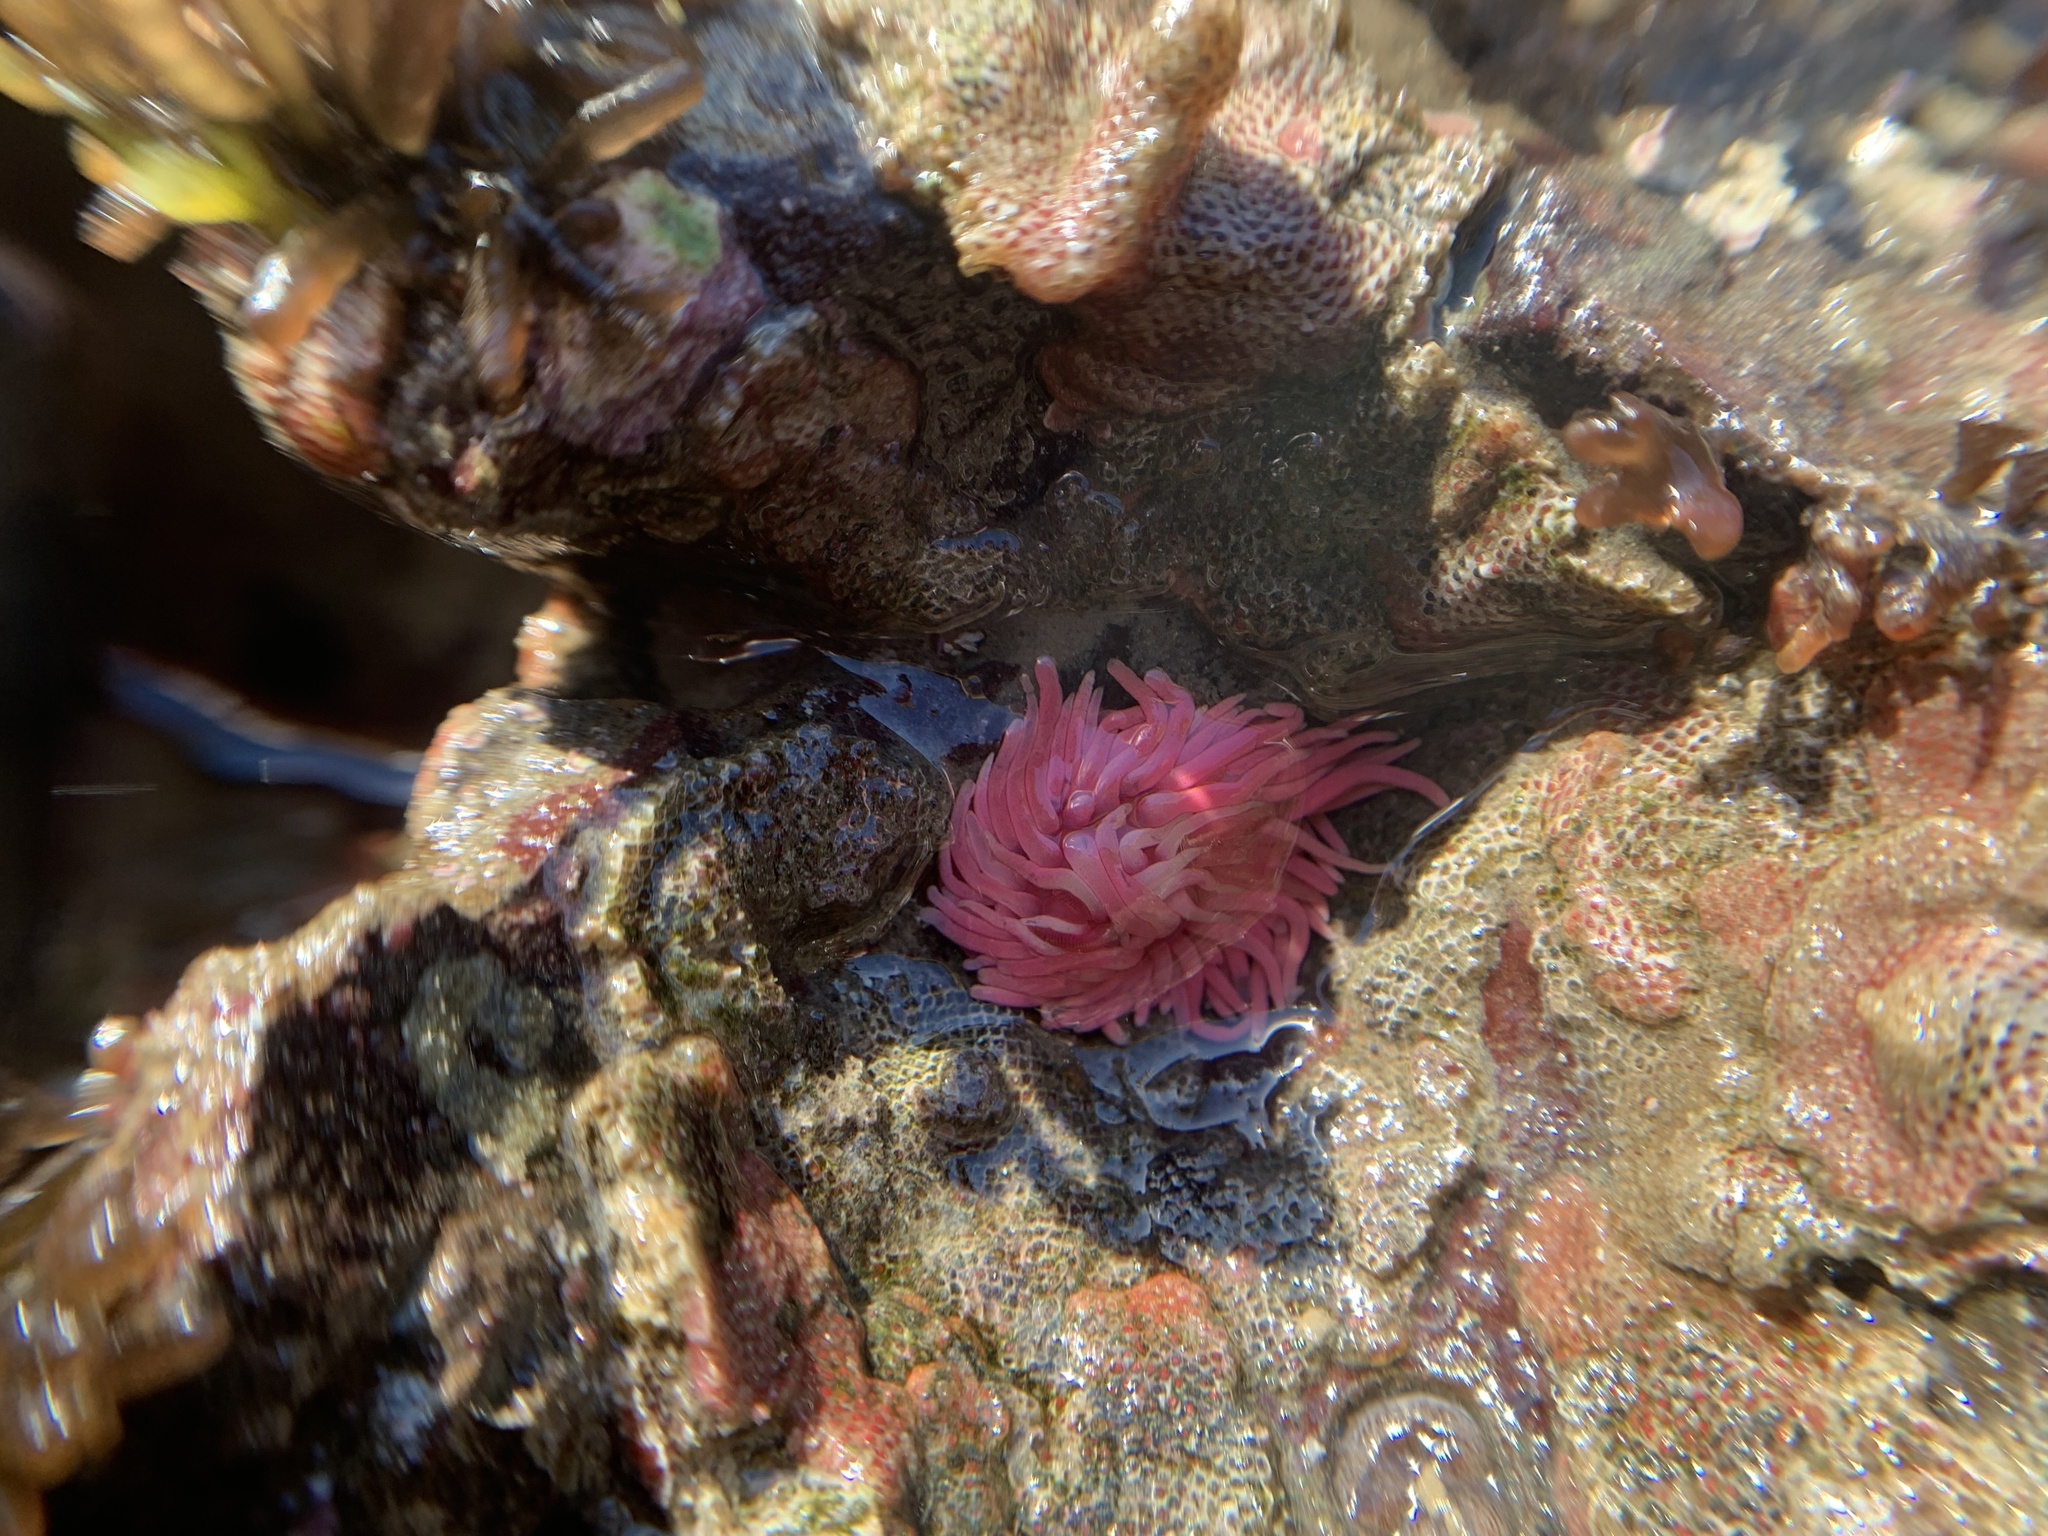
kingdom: Animalia
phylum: Mollusca
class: Gastropoda
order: Nudibranchia
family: Goniodorididae
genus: Okenia
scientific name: Okenia
